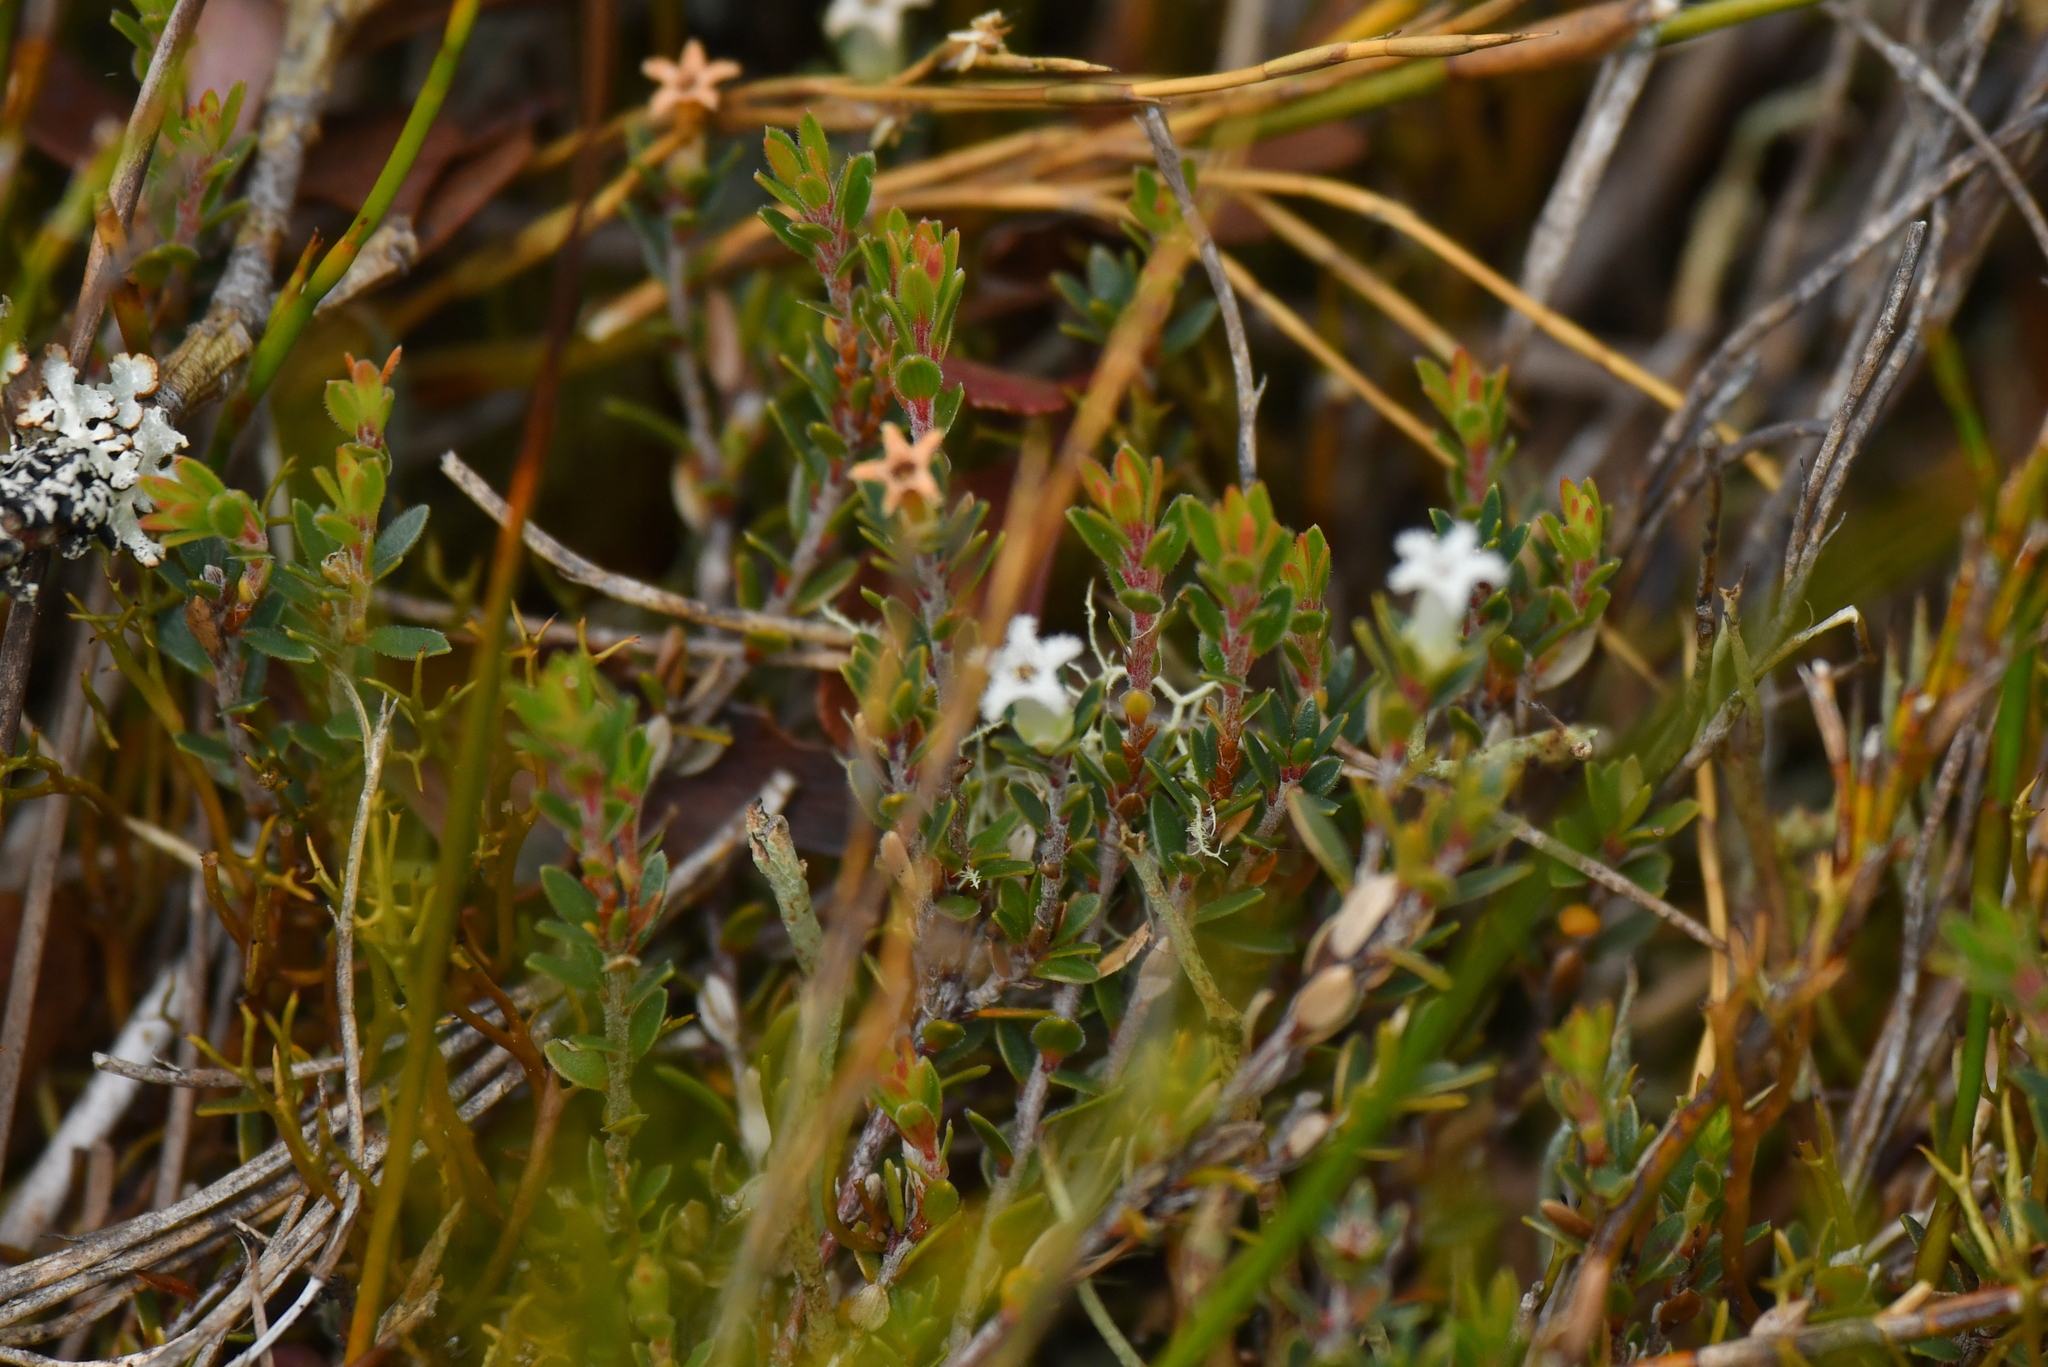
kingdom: Plantae
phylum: Tracheophyta
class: Magnoliopsida
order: Ericales
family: Ericaceae
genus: Styphelia
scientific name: Styphelia nesophila
